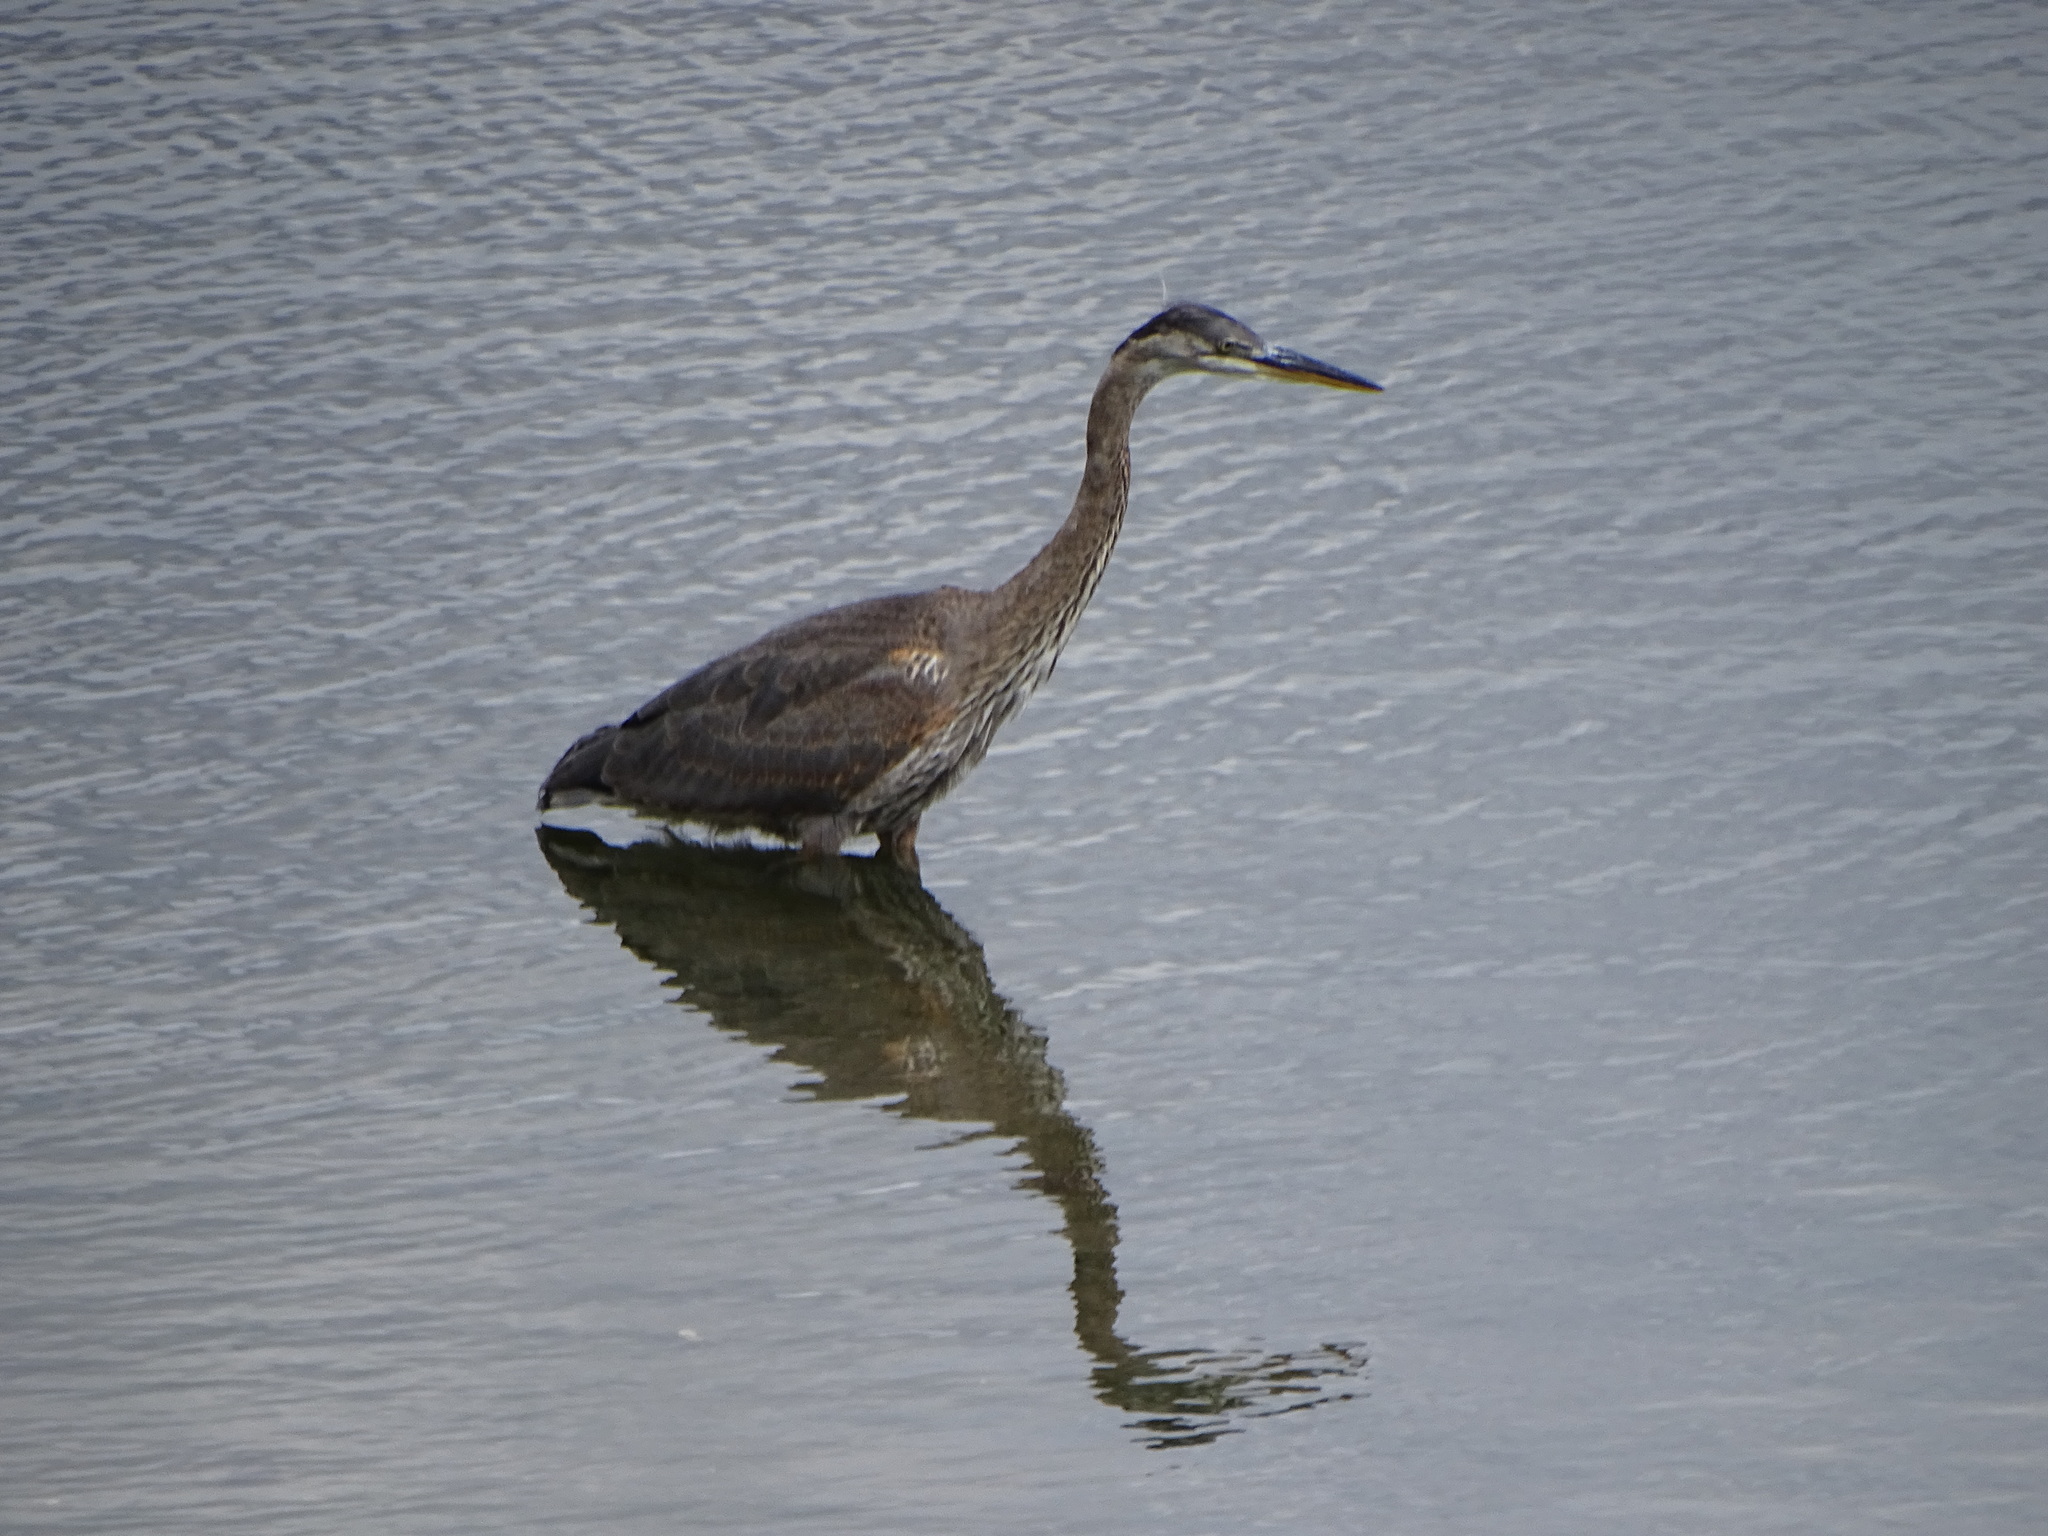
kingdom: Animalia
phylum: Chordata
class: Aves
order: Pelecaniformes
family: Ardeidae
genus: Ardea
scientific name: Ardea herodias
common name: Great blue heron
